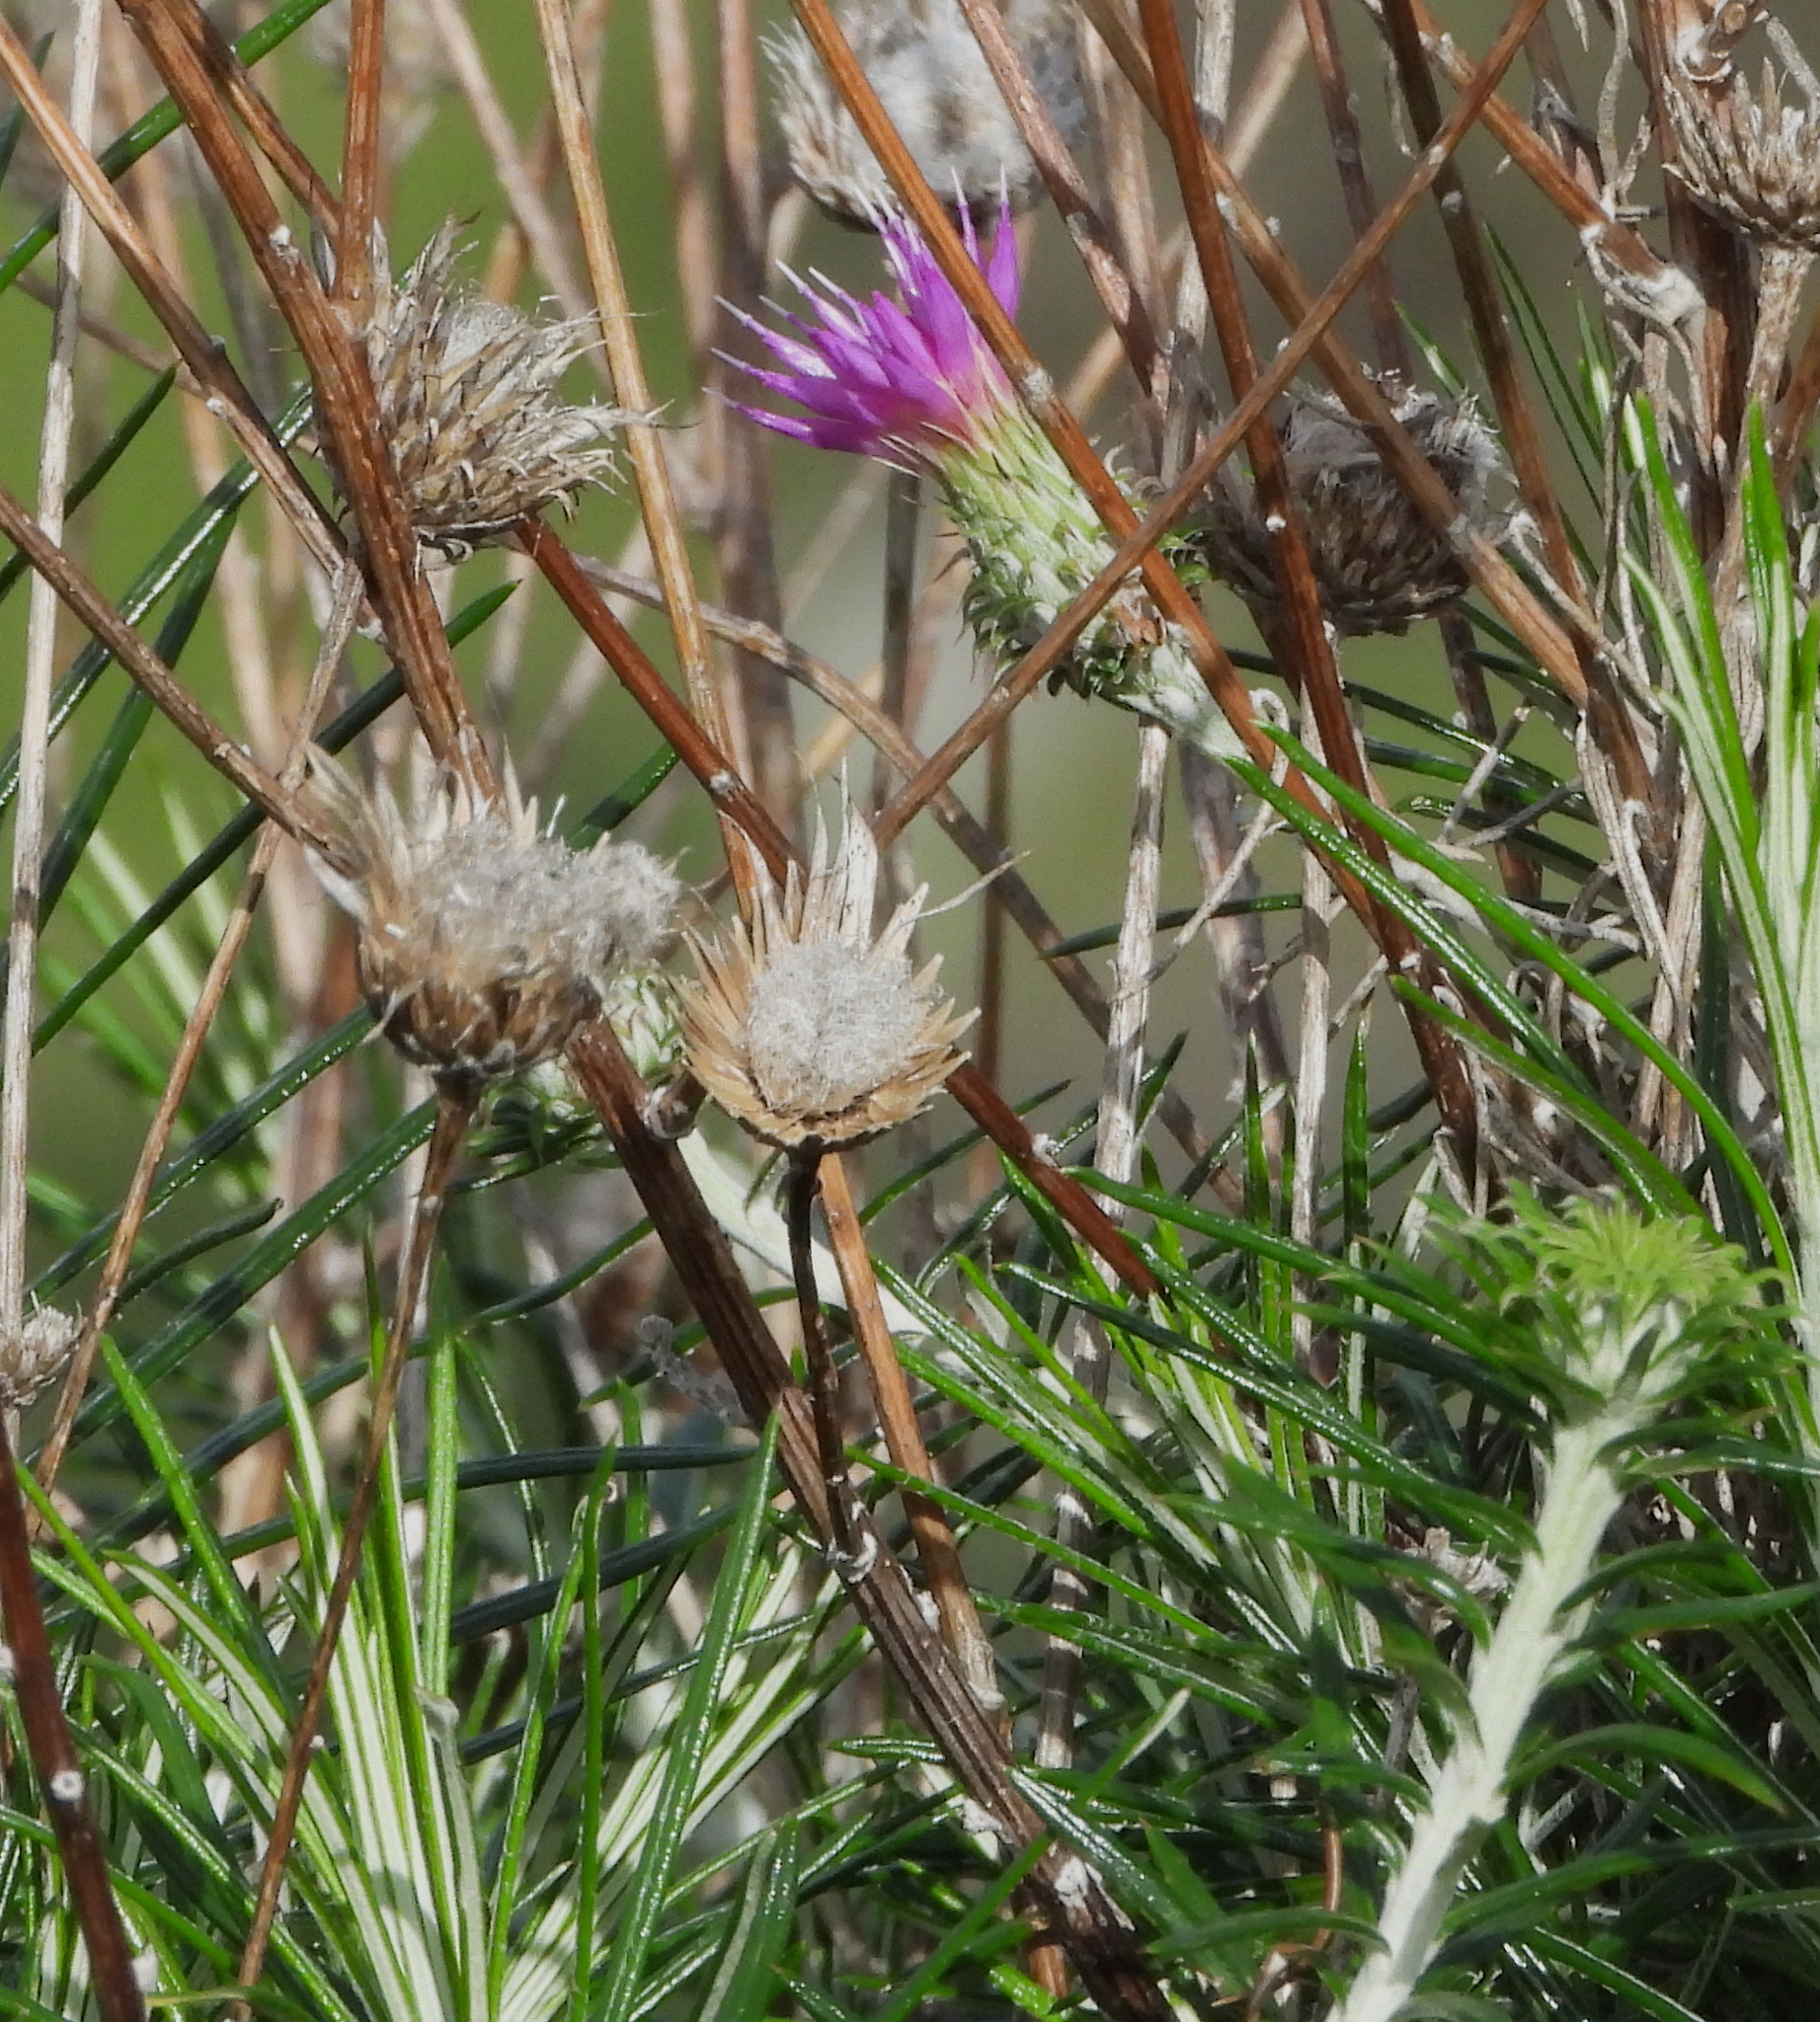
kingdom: Plantae
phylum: Tracheophyta
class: Magnoliopsida
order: Asterales
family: Asteraceae
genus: Ptilostemon
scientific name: Ptilostemon chamaepeuce
